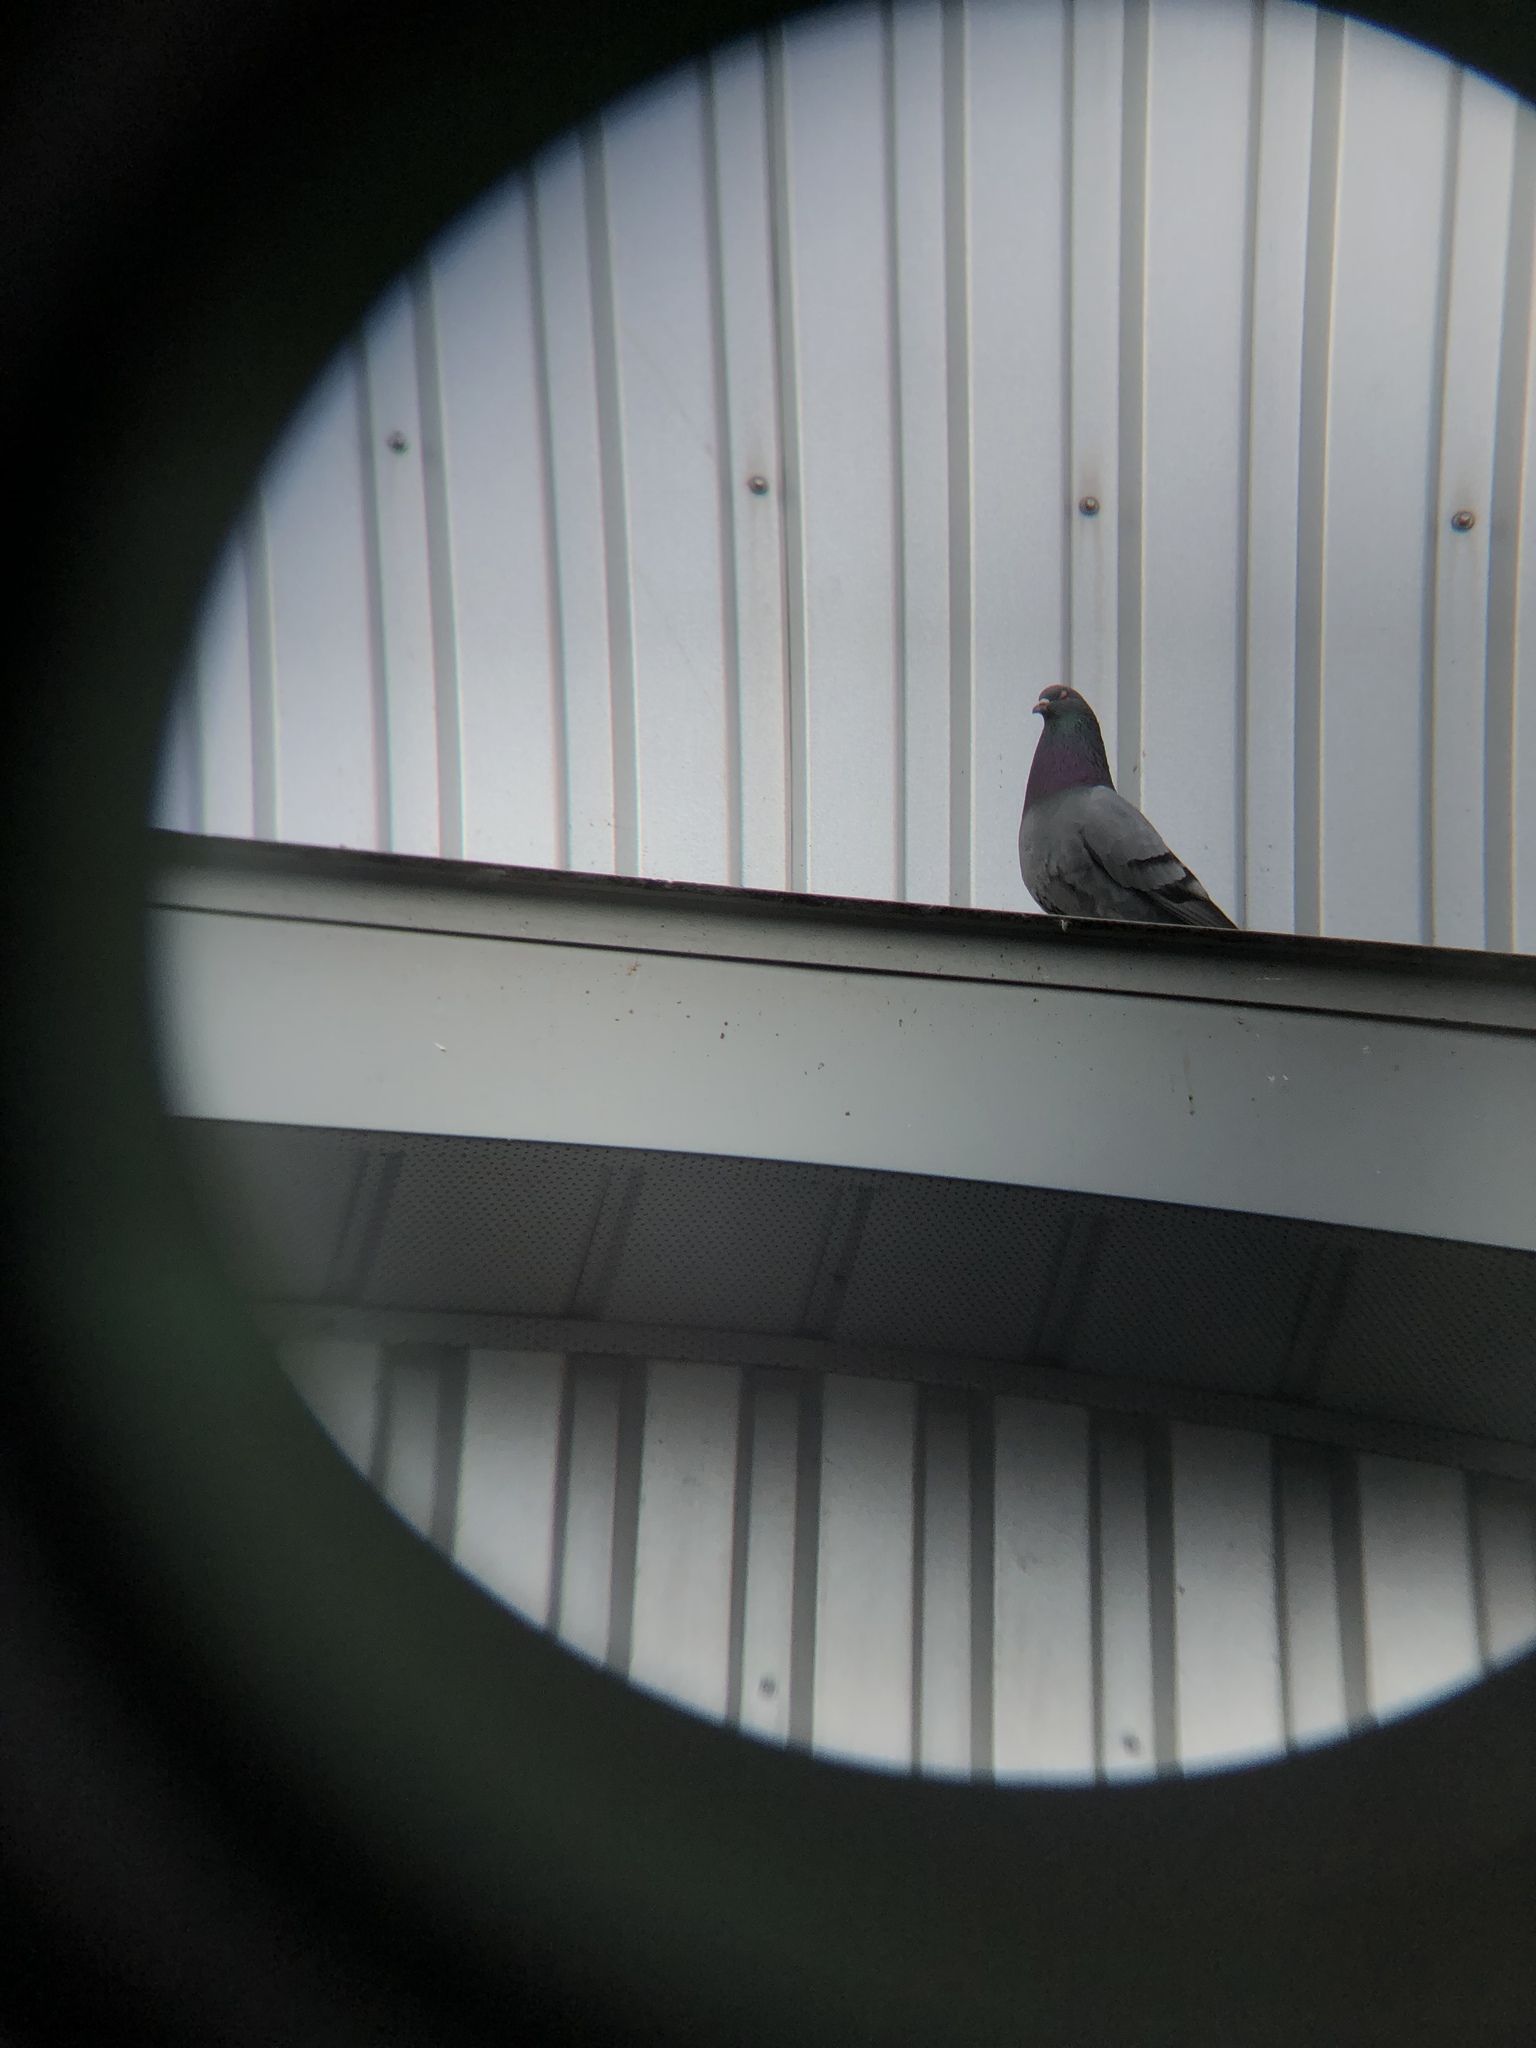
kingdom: Animalia
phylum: Chordata
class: Aves
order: Columbiformes
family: Columbidae
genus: Columba
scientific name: Columba livia
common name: Rock pigeon
